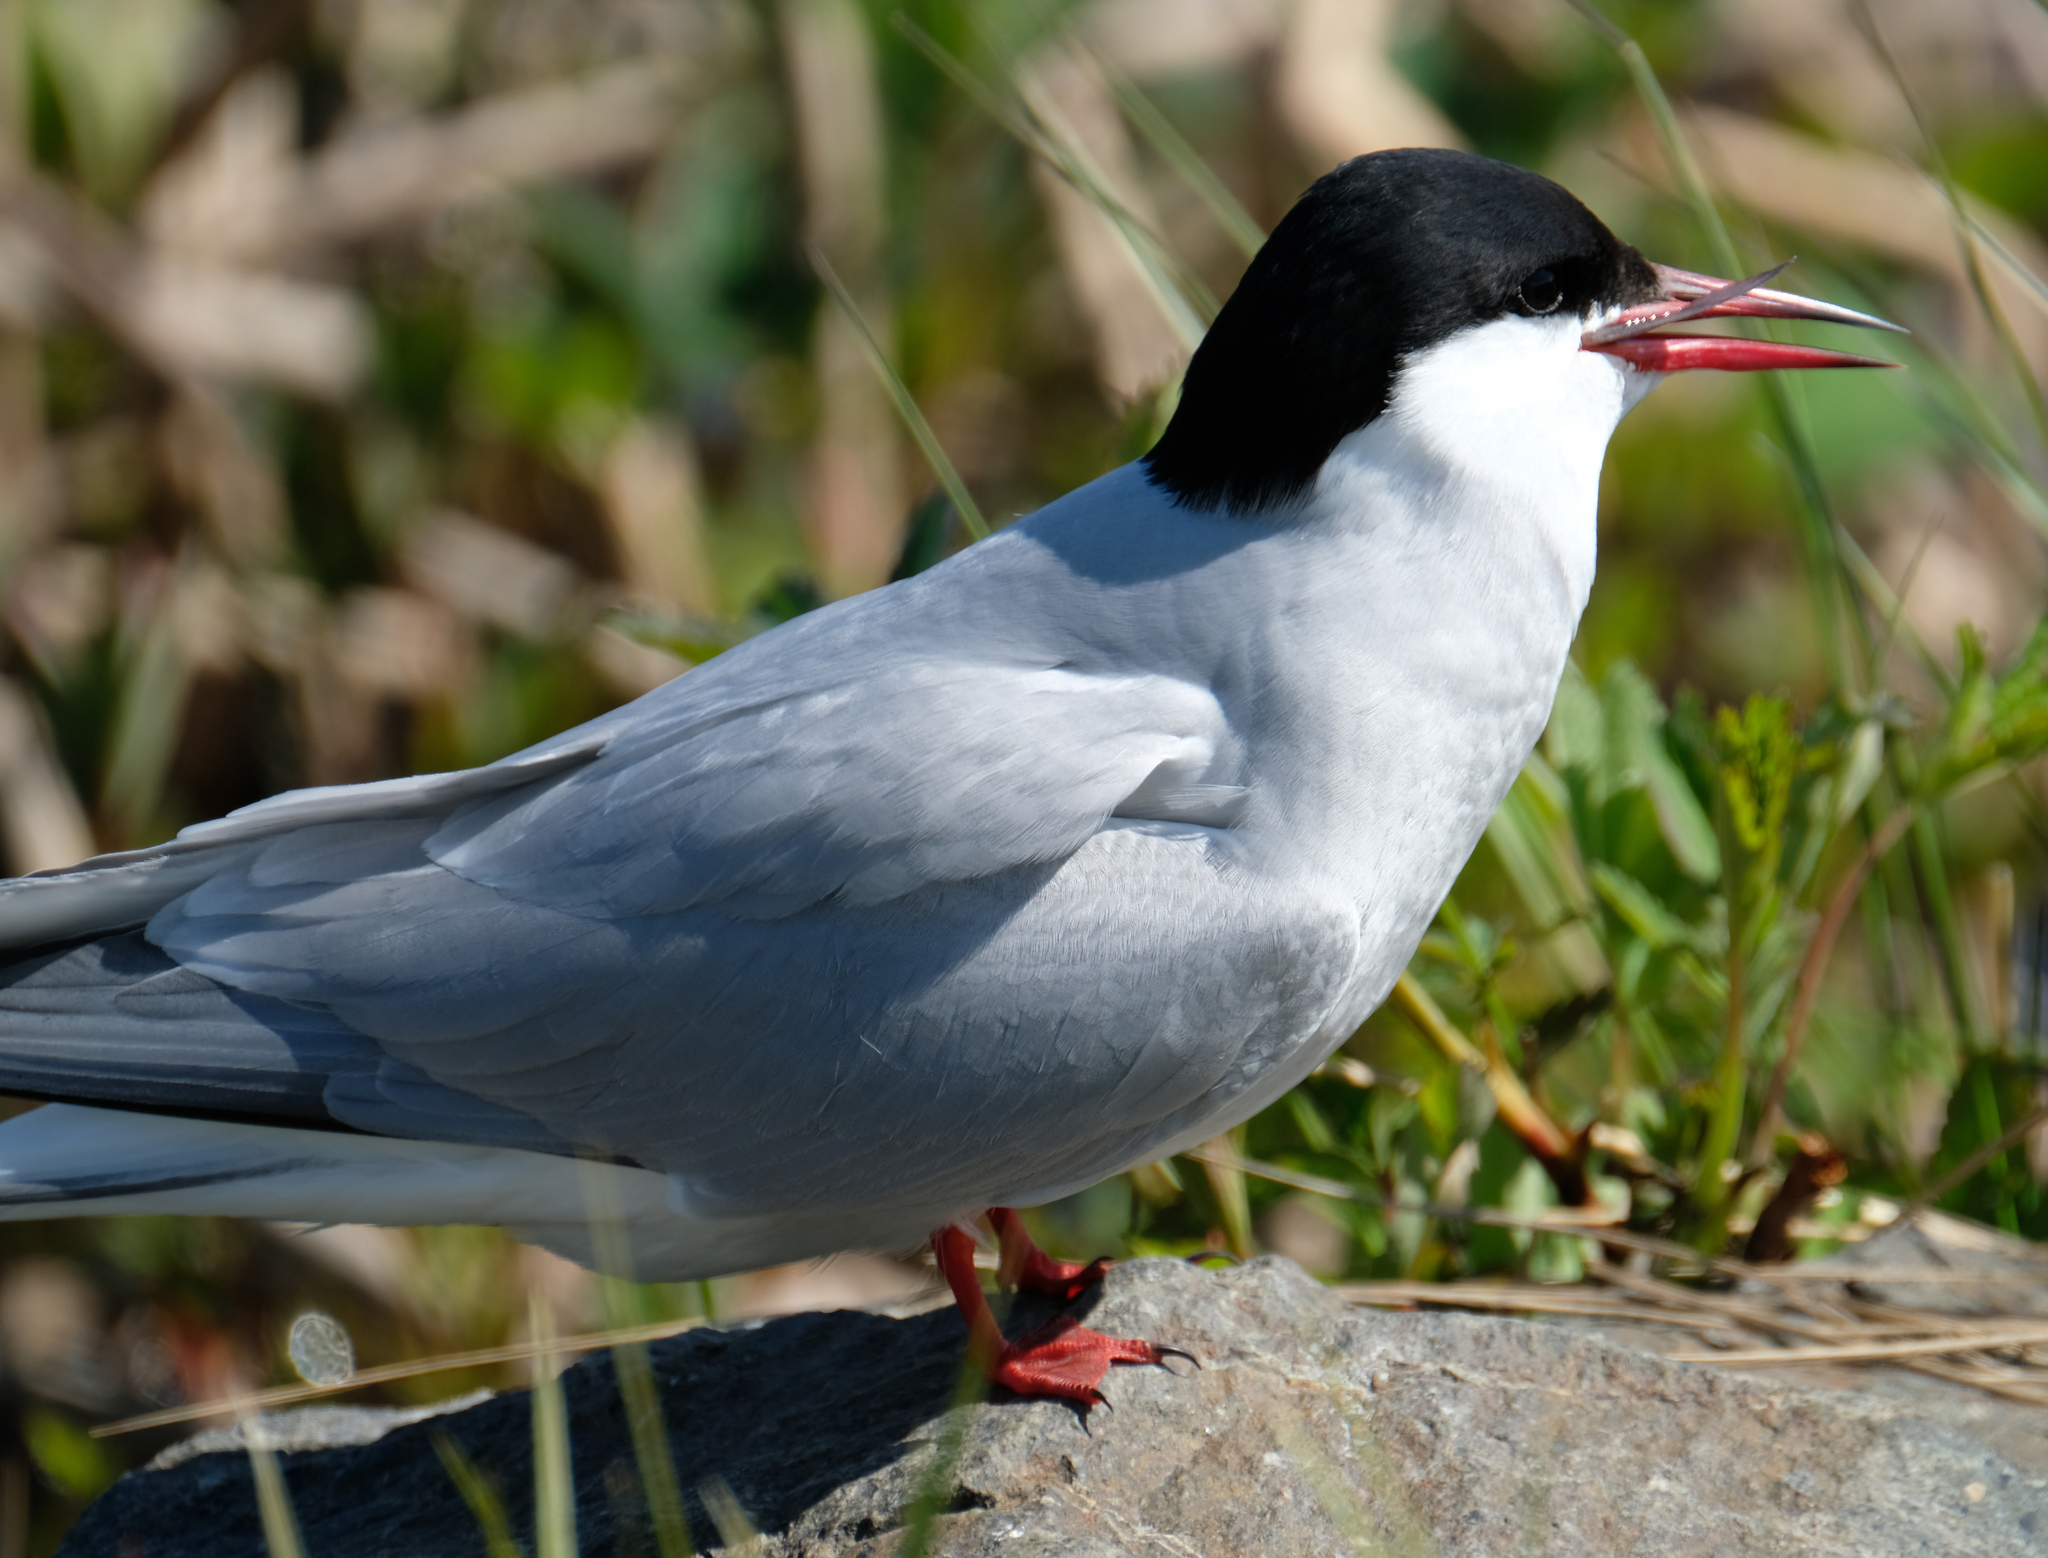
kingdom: Animalia
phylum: Chordata
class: Aves
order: Charadriiformes
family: Laridae
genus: Sterna
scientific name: Sterna paradisaea
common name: Arctic tern
